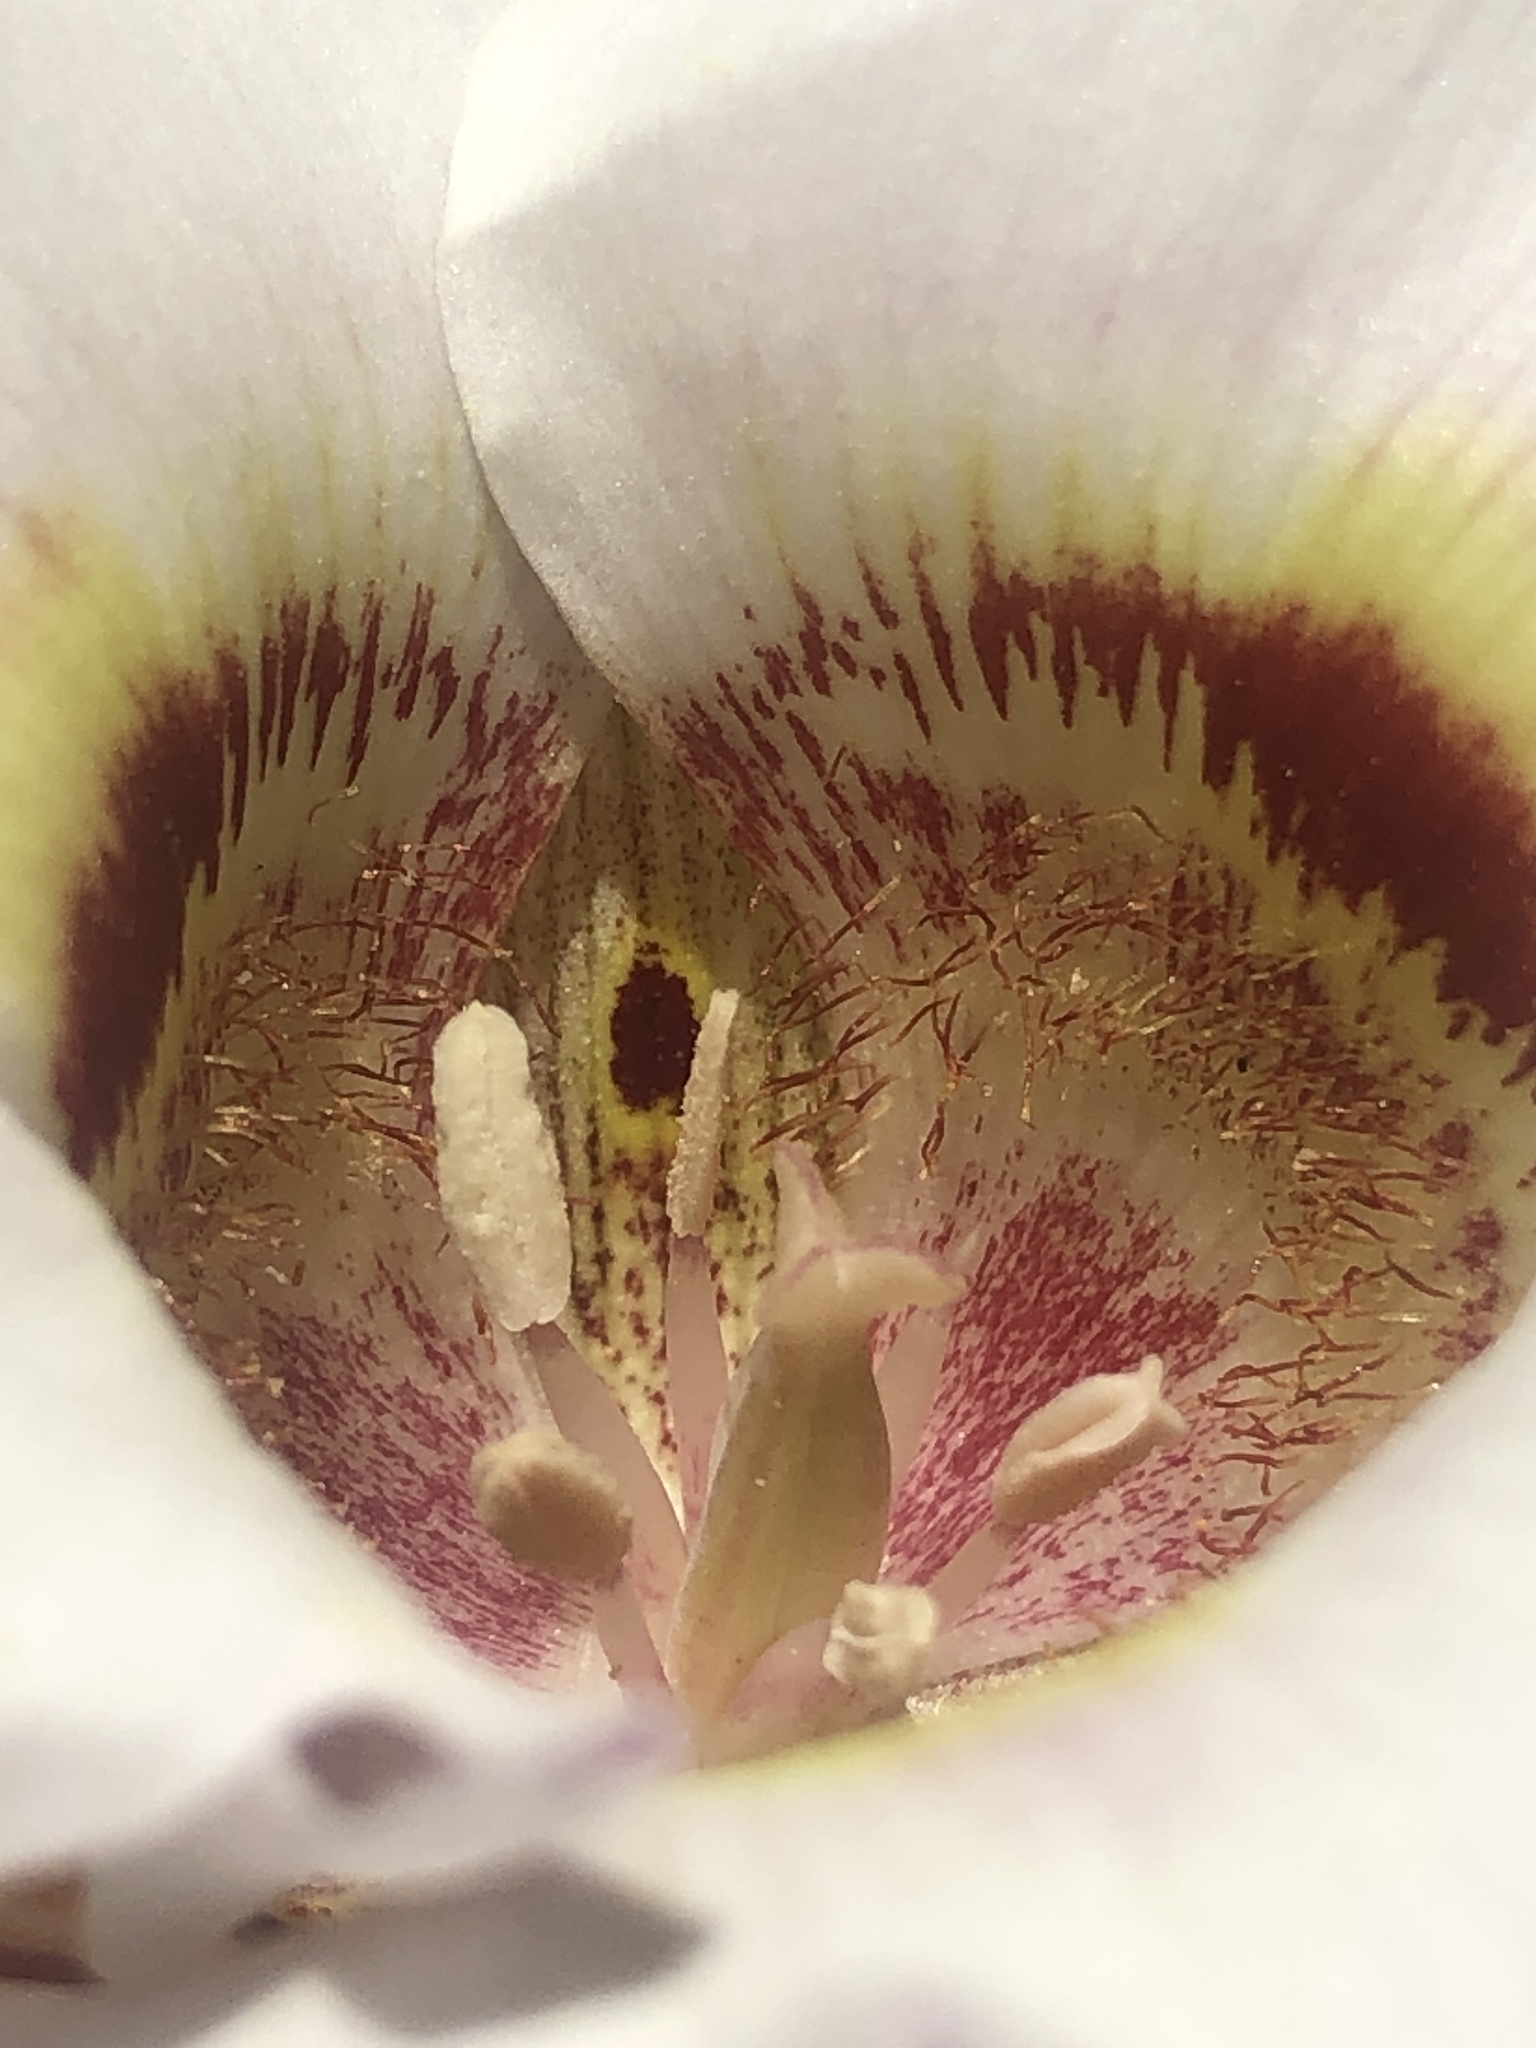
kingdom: Plantae
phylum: Tracheophyta
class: Liliopsida
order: Liliales
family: Liliaceae
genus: Calochortus
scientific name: Calochortus argillosus
